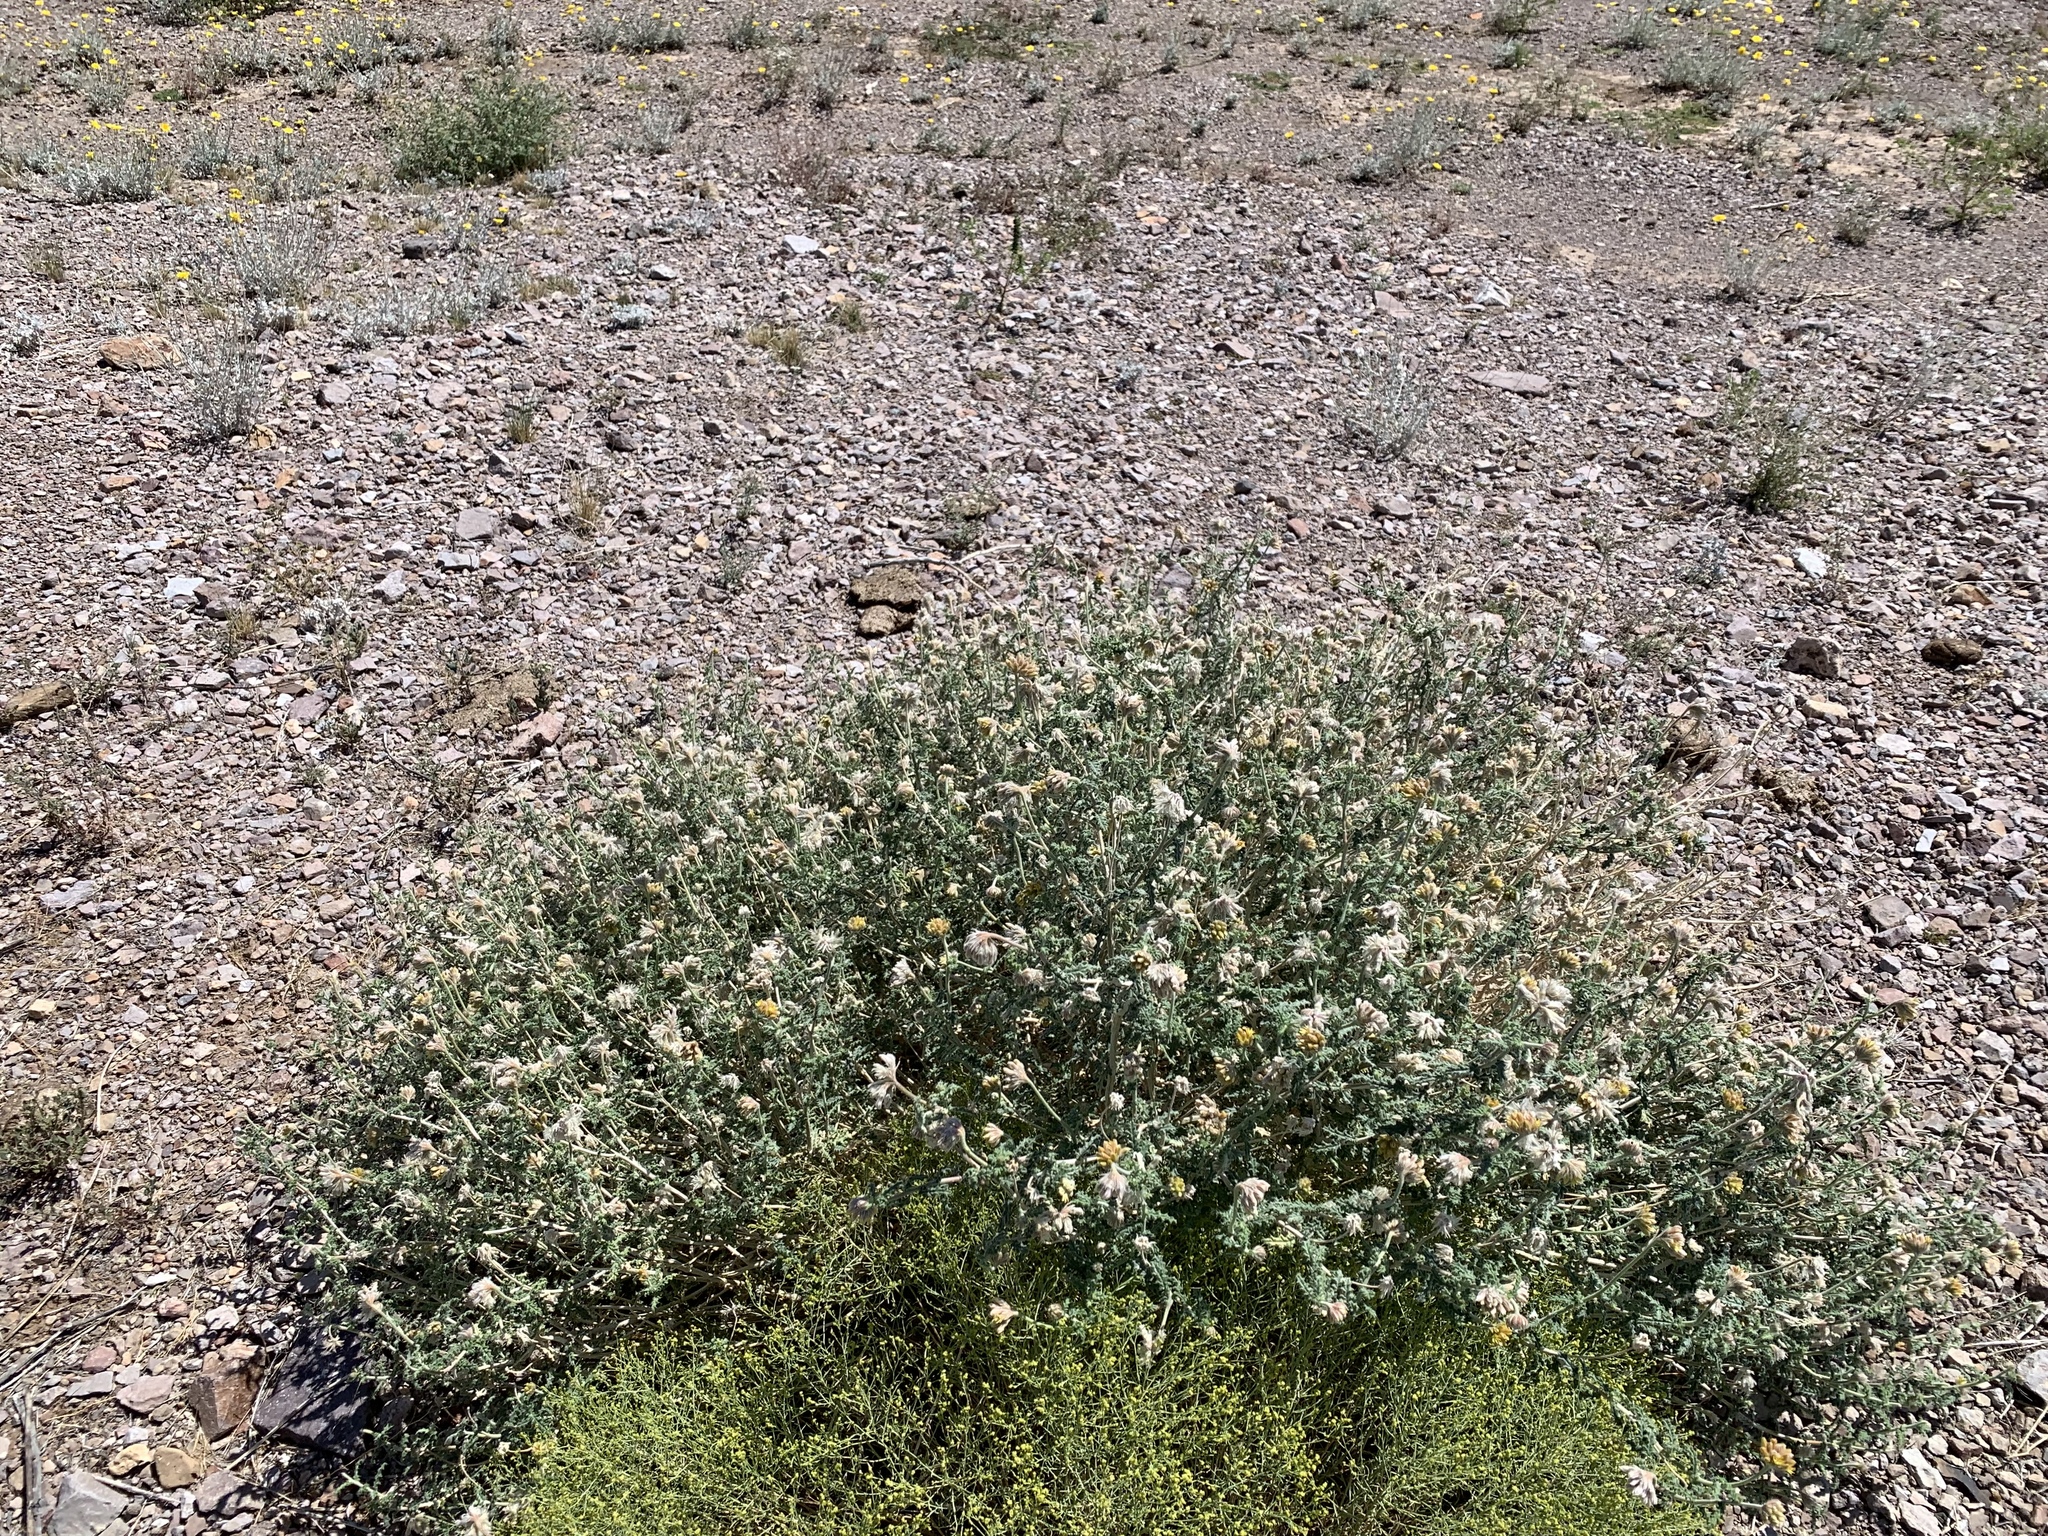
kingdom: Plantae
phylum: Tracheophyta
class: Magnoliopsida
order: Cornales
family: Loasaceae
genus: Cevallia
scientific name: Cevallia sinuata
